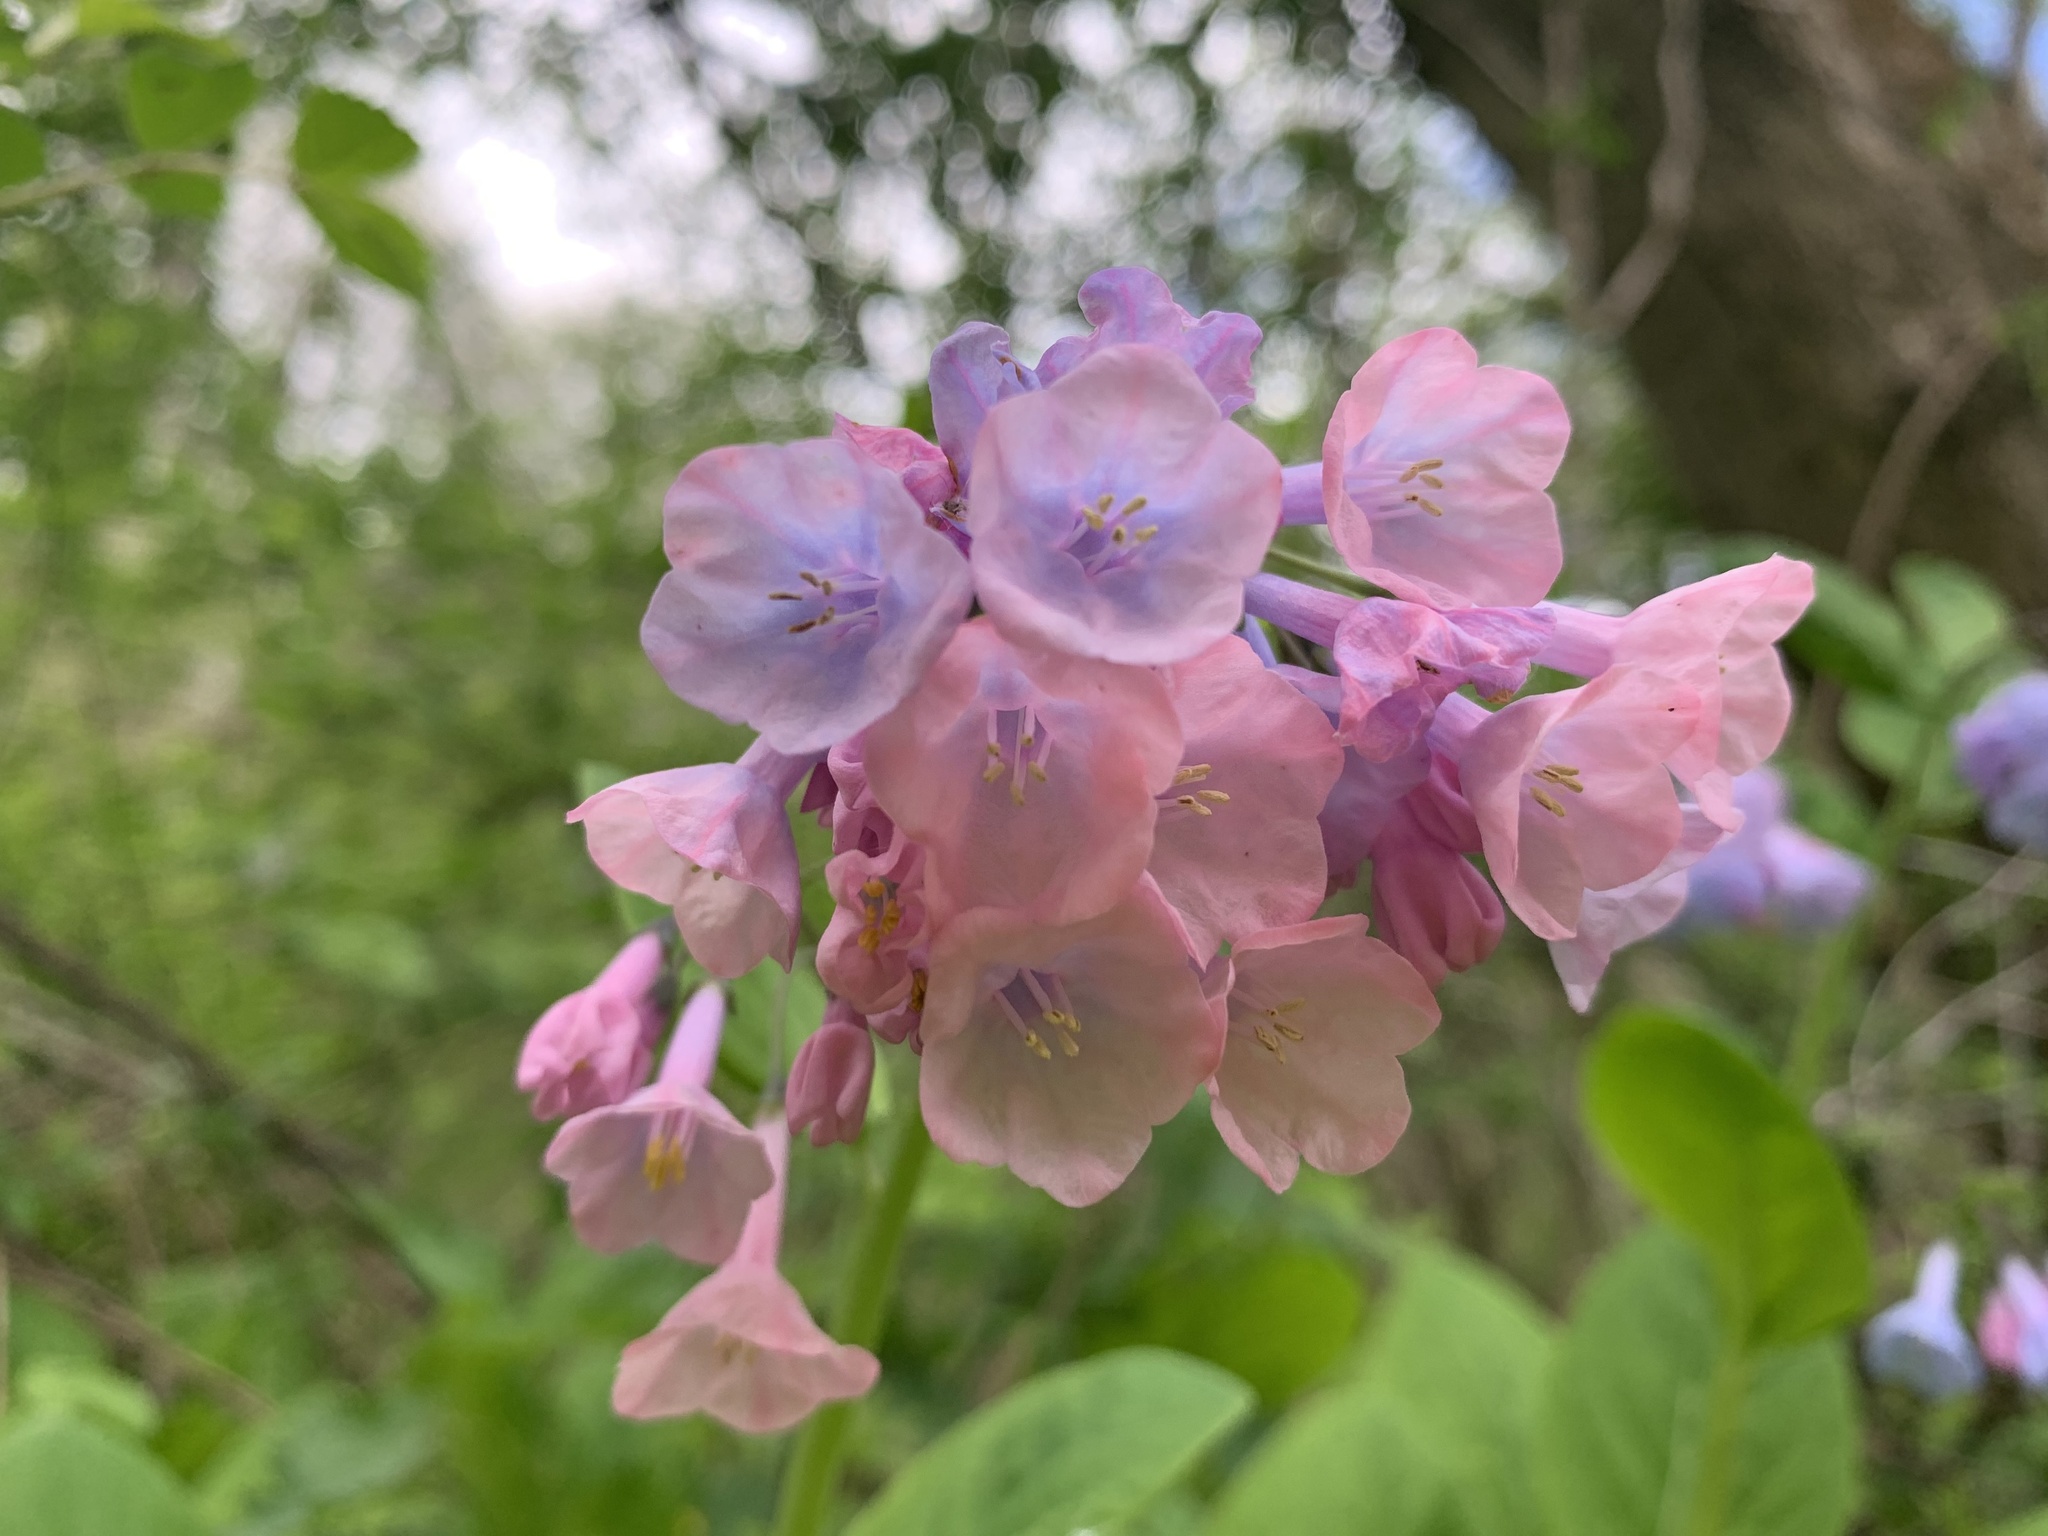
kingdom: Plantae
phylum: Tracheophyta
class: Magnoliopsida
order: Boraginales
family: Boraginaceae
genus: Mertensia
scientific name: Mertensia virginica
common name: Virginia bluebells
